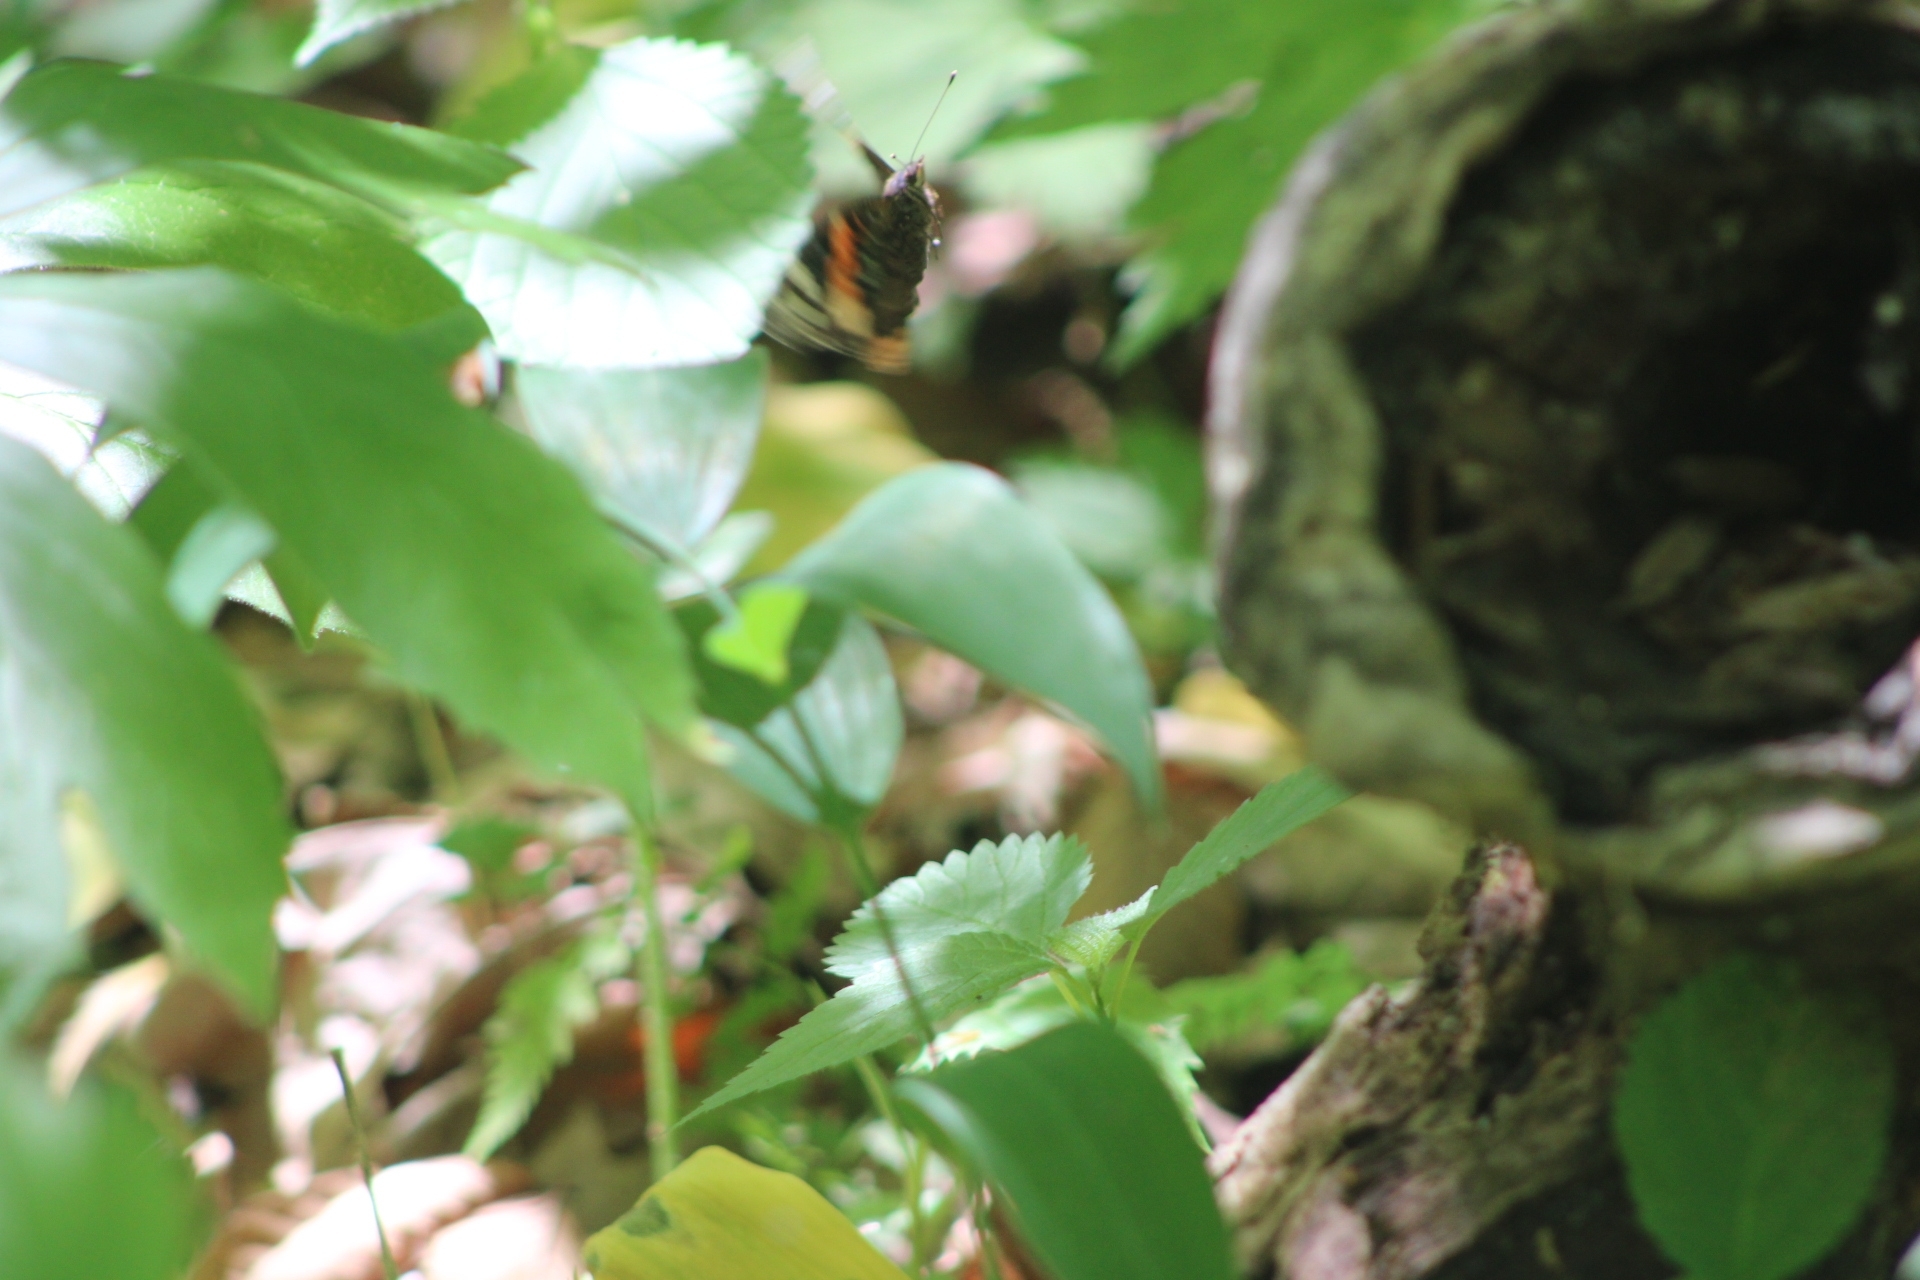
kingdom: Animalia
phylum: Arthropoda
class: Insecta
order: Lepidoptera
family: Nymphalidae
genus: Vanessa
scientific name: Vanessa atalanta
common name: Red admiral
